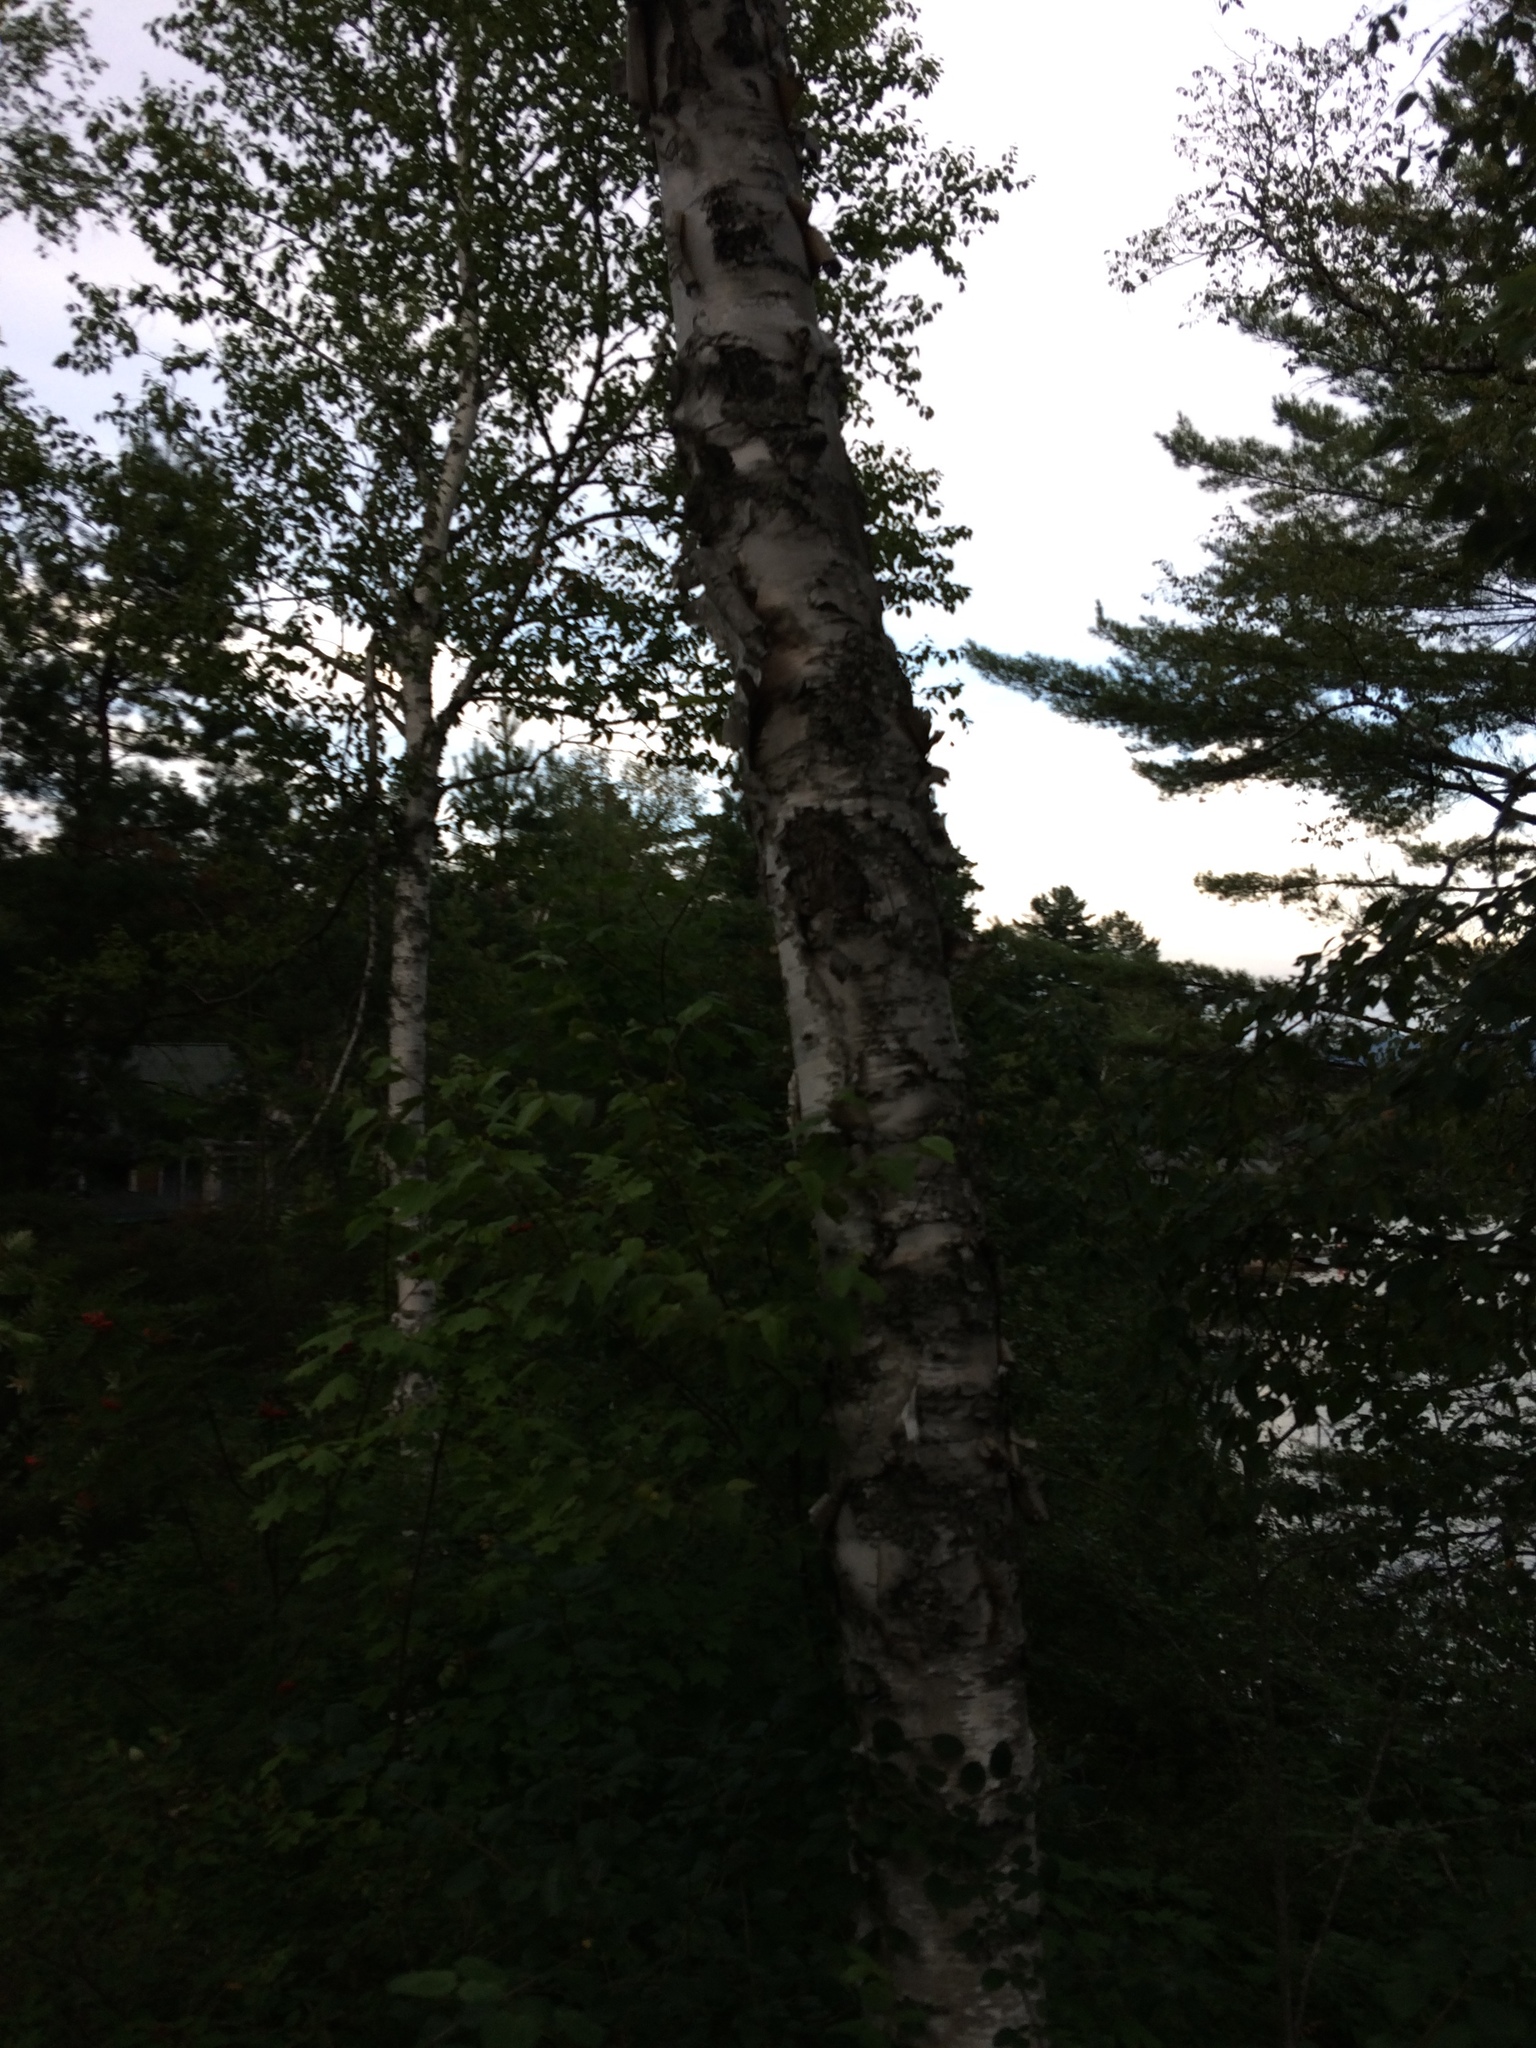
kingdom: Plantae
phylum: Tracheophyta
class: Magnoliopsida
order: Fagales
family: Betulaceae
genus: Betula
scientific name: Betula papyrifera
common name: Paper birch
